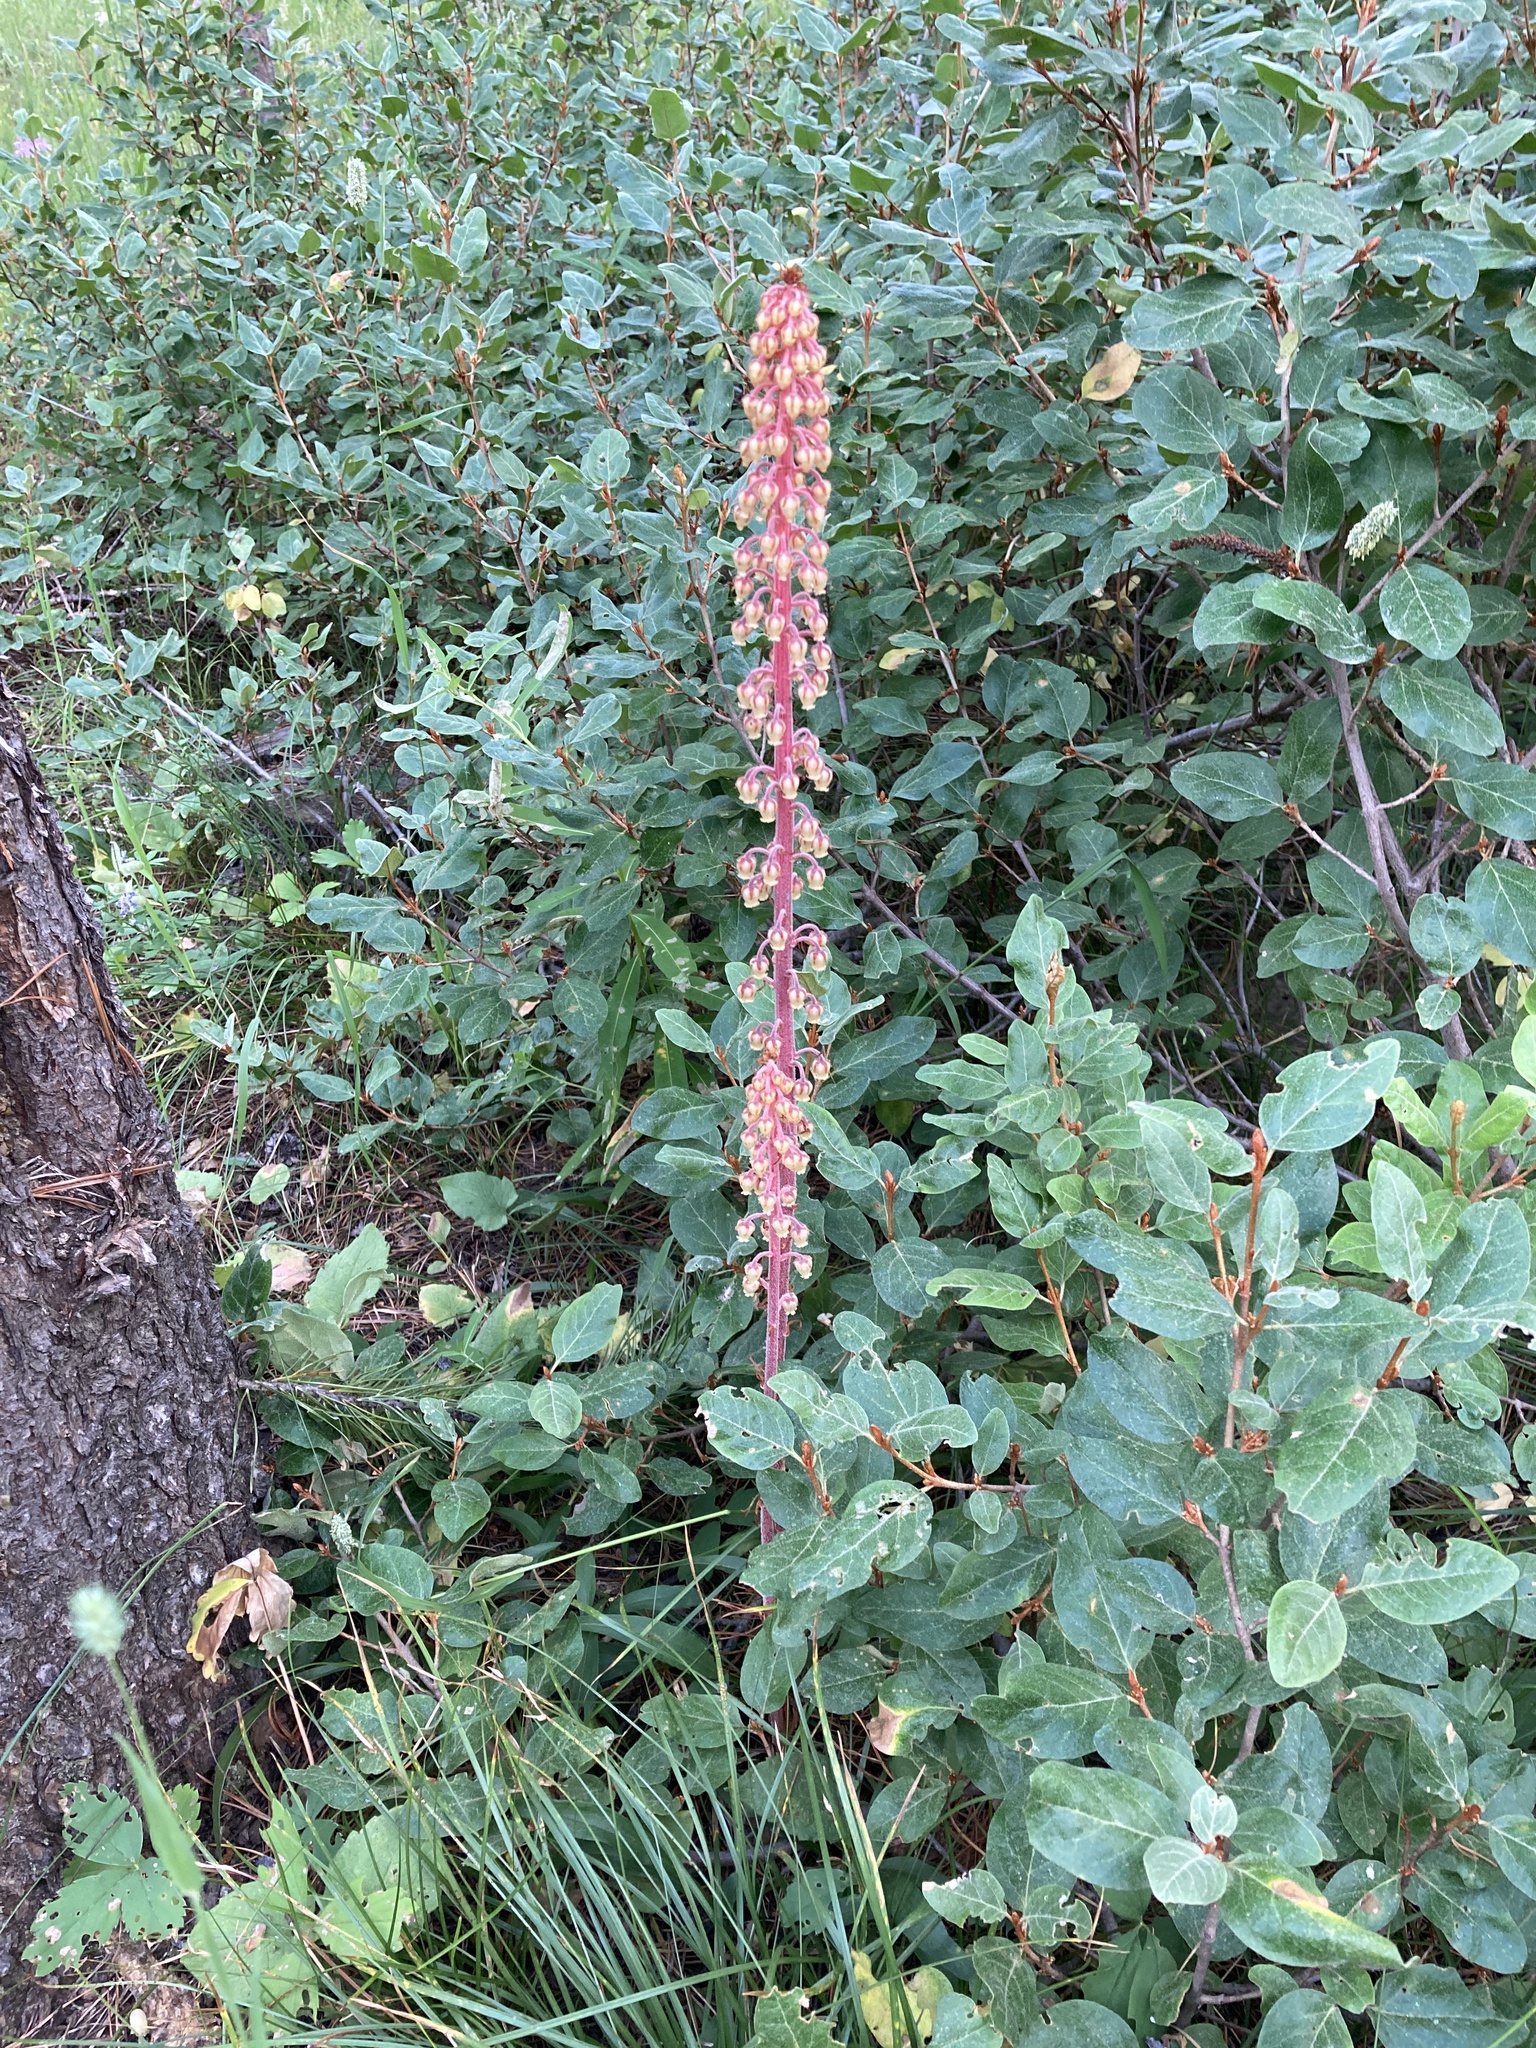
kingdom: Plantae
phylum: Tracheophyta
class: Magnoliopsida
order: Ericales
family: Ericaceae
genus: Pterospora
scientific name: Pterospora andromedea
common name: Giant bird's-nest
